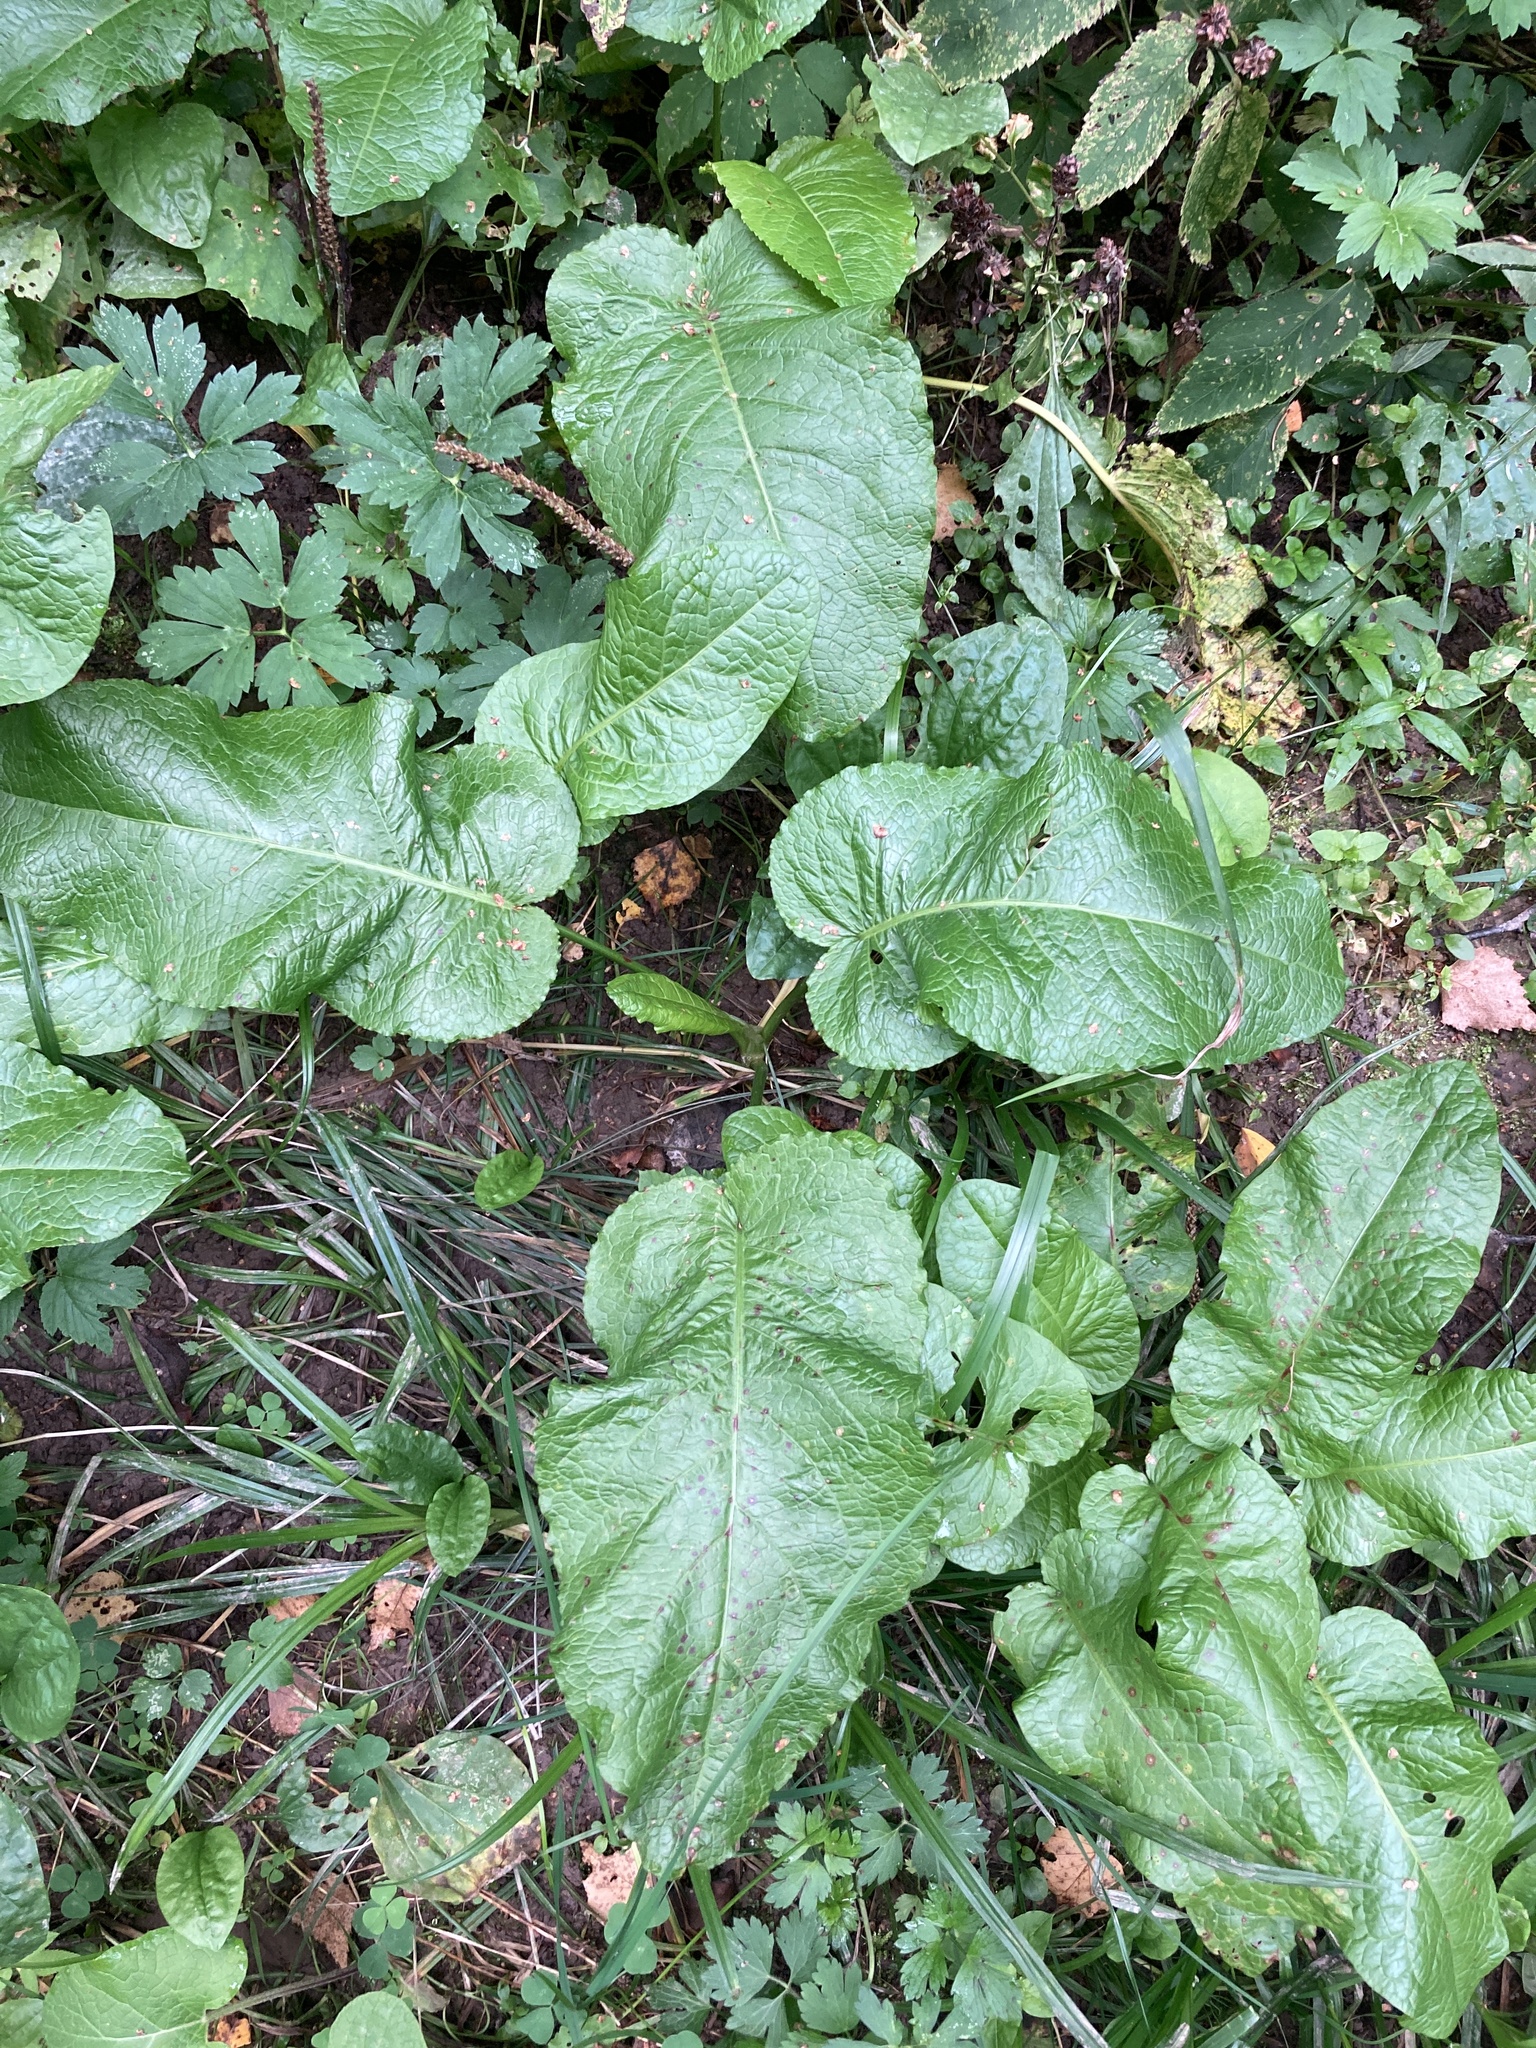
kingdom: Plantae
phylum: Tracheophyta
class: Magnoliopsida
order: Caryophyllales
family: Polygonaceae
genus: Rumex
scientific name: Rumex obtusifolius
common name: Bitter dock
